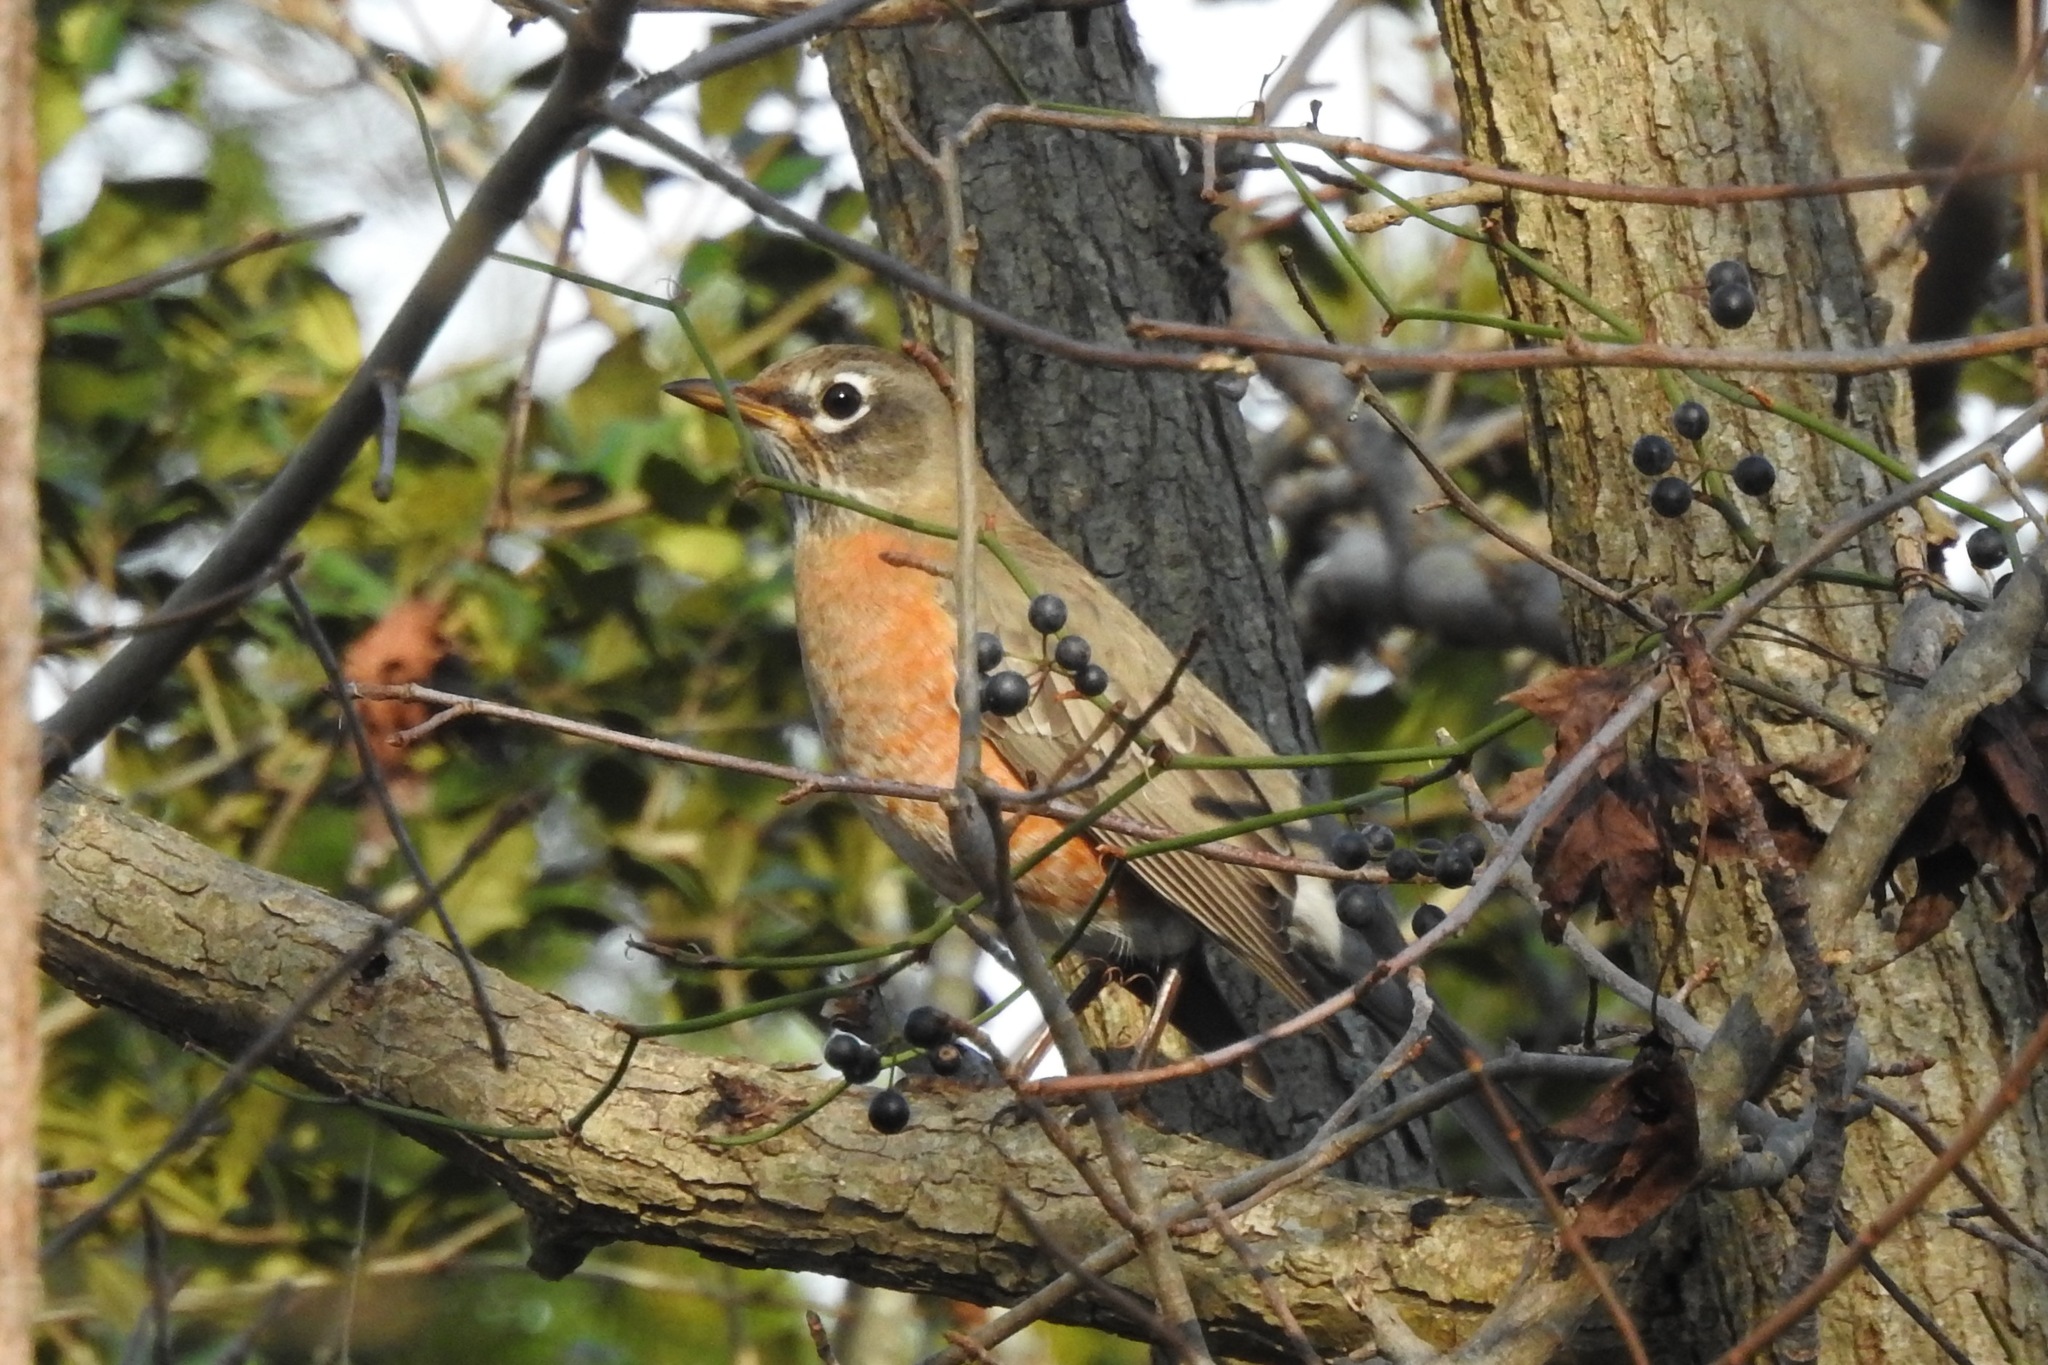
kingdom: Animalia
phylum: Chordata
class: Aves
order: Passeriformes
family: Turdidae
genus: Turdus
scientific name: Turdus migratorius
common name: American robin
